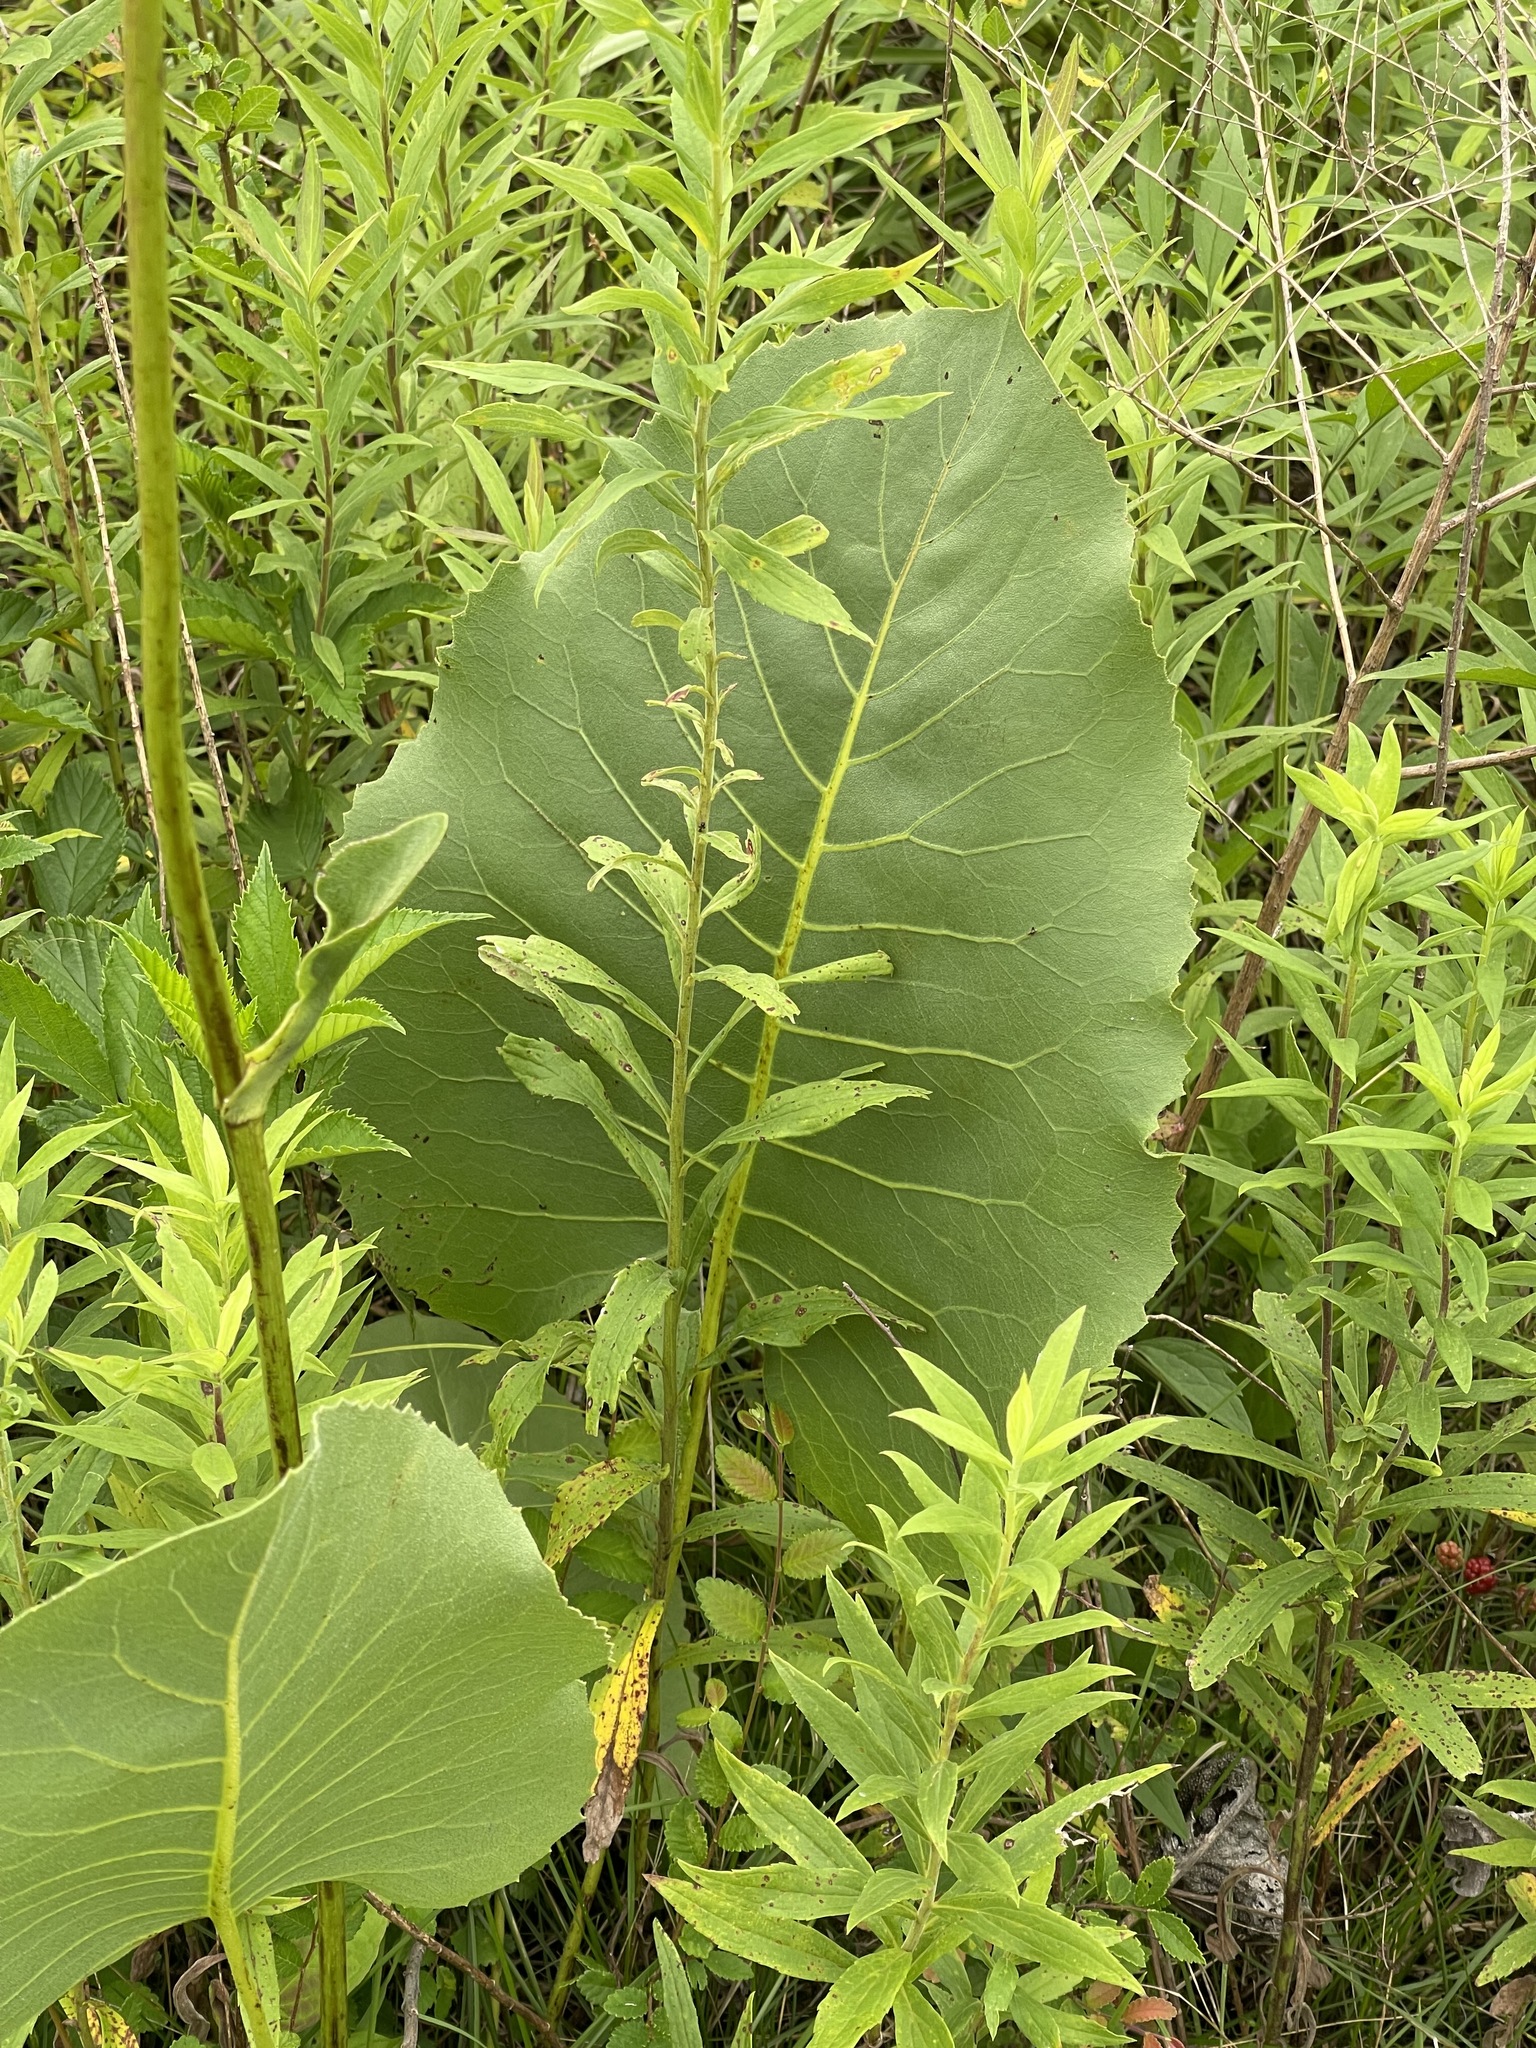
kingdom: Plantae
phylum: Tracheophyta
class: Magnoliopsida
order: Asterales
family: Asteraceae
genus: Silphium
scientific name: Silphium terebinthinaceum
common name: Basal-leaf rosinweed
